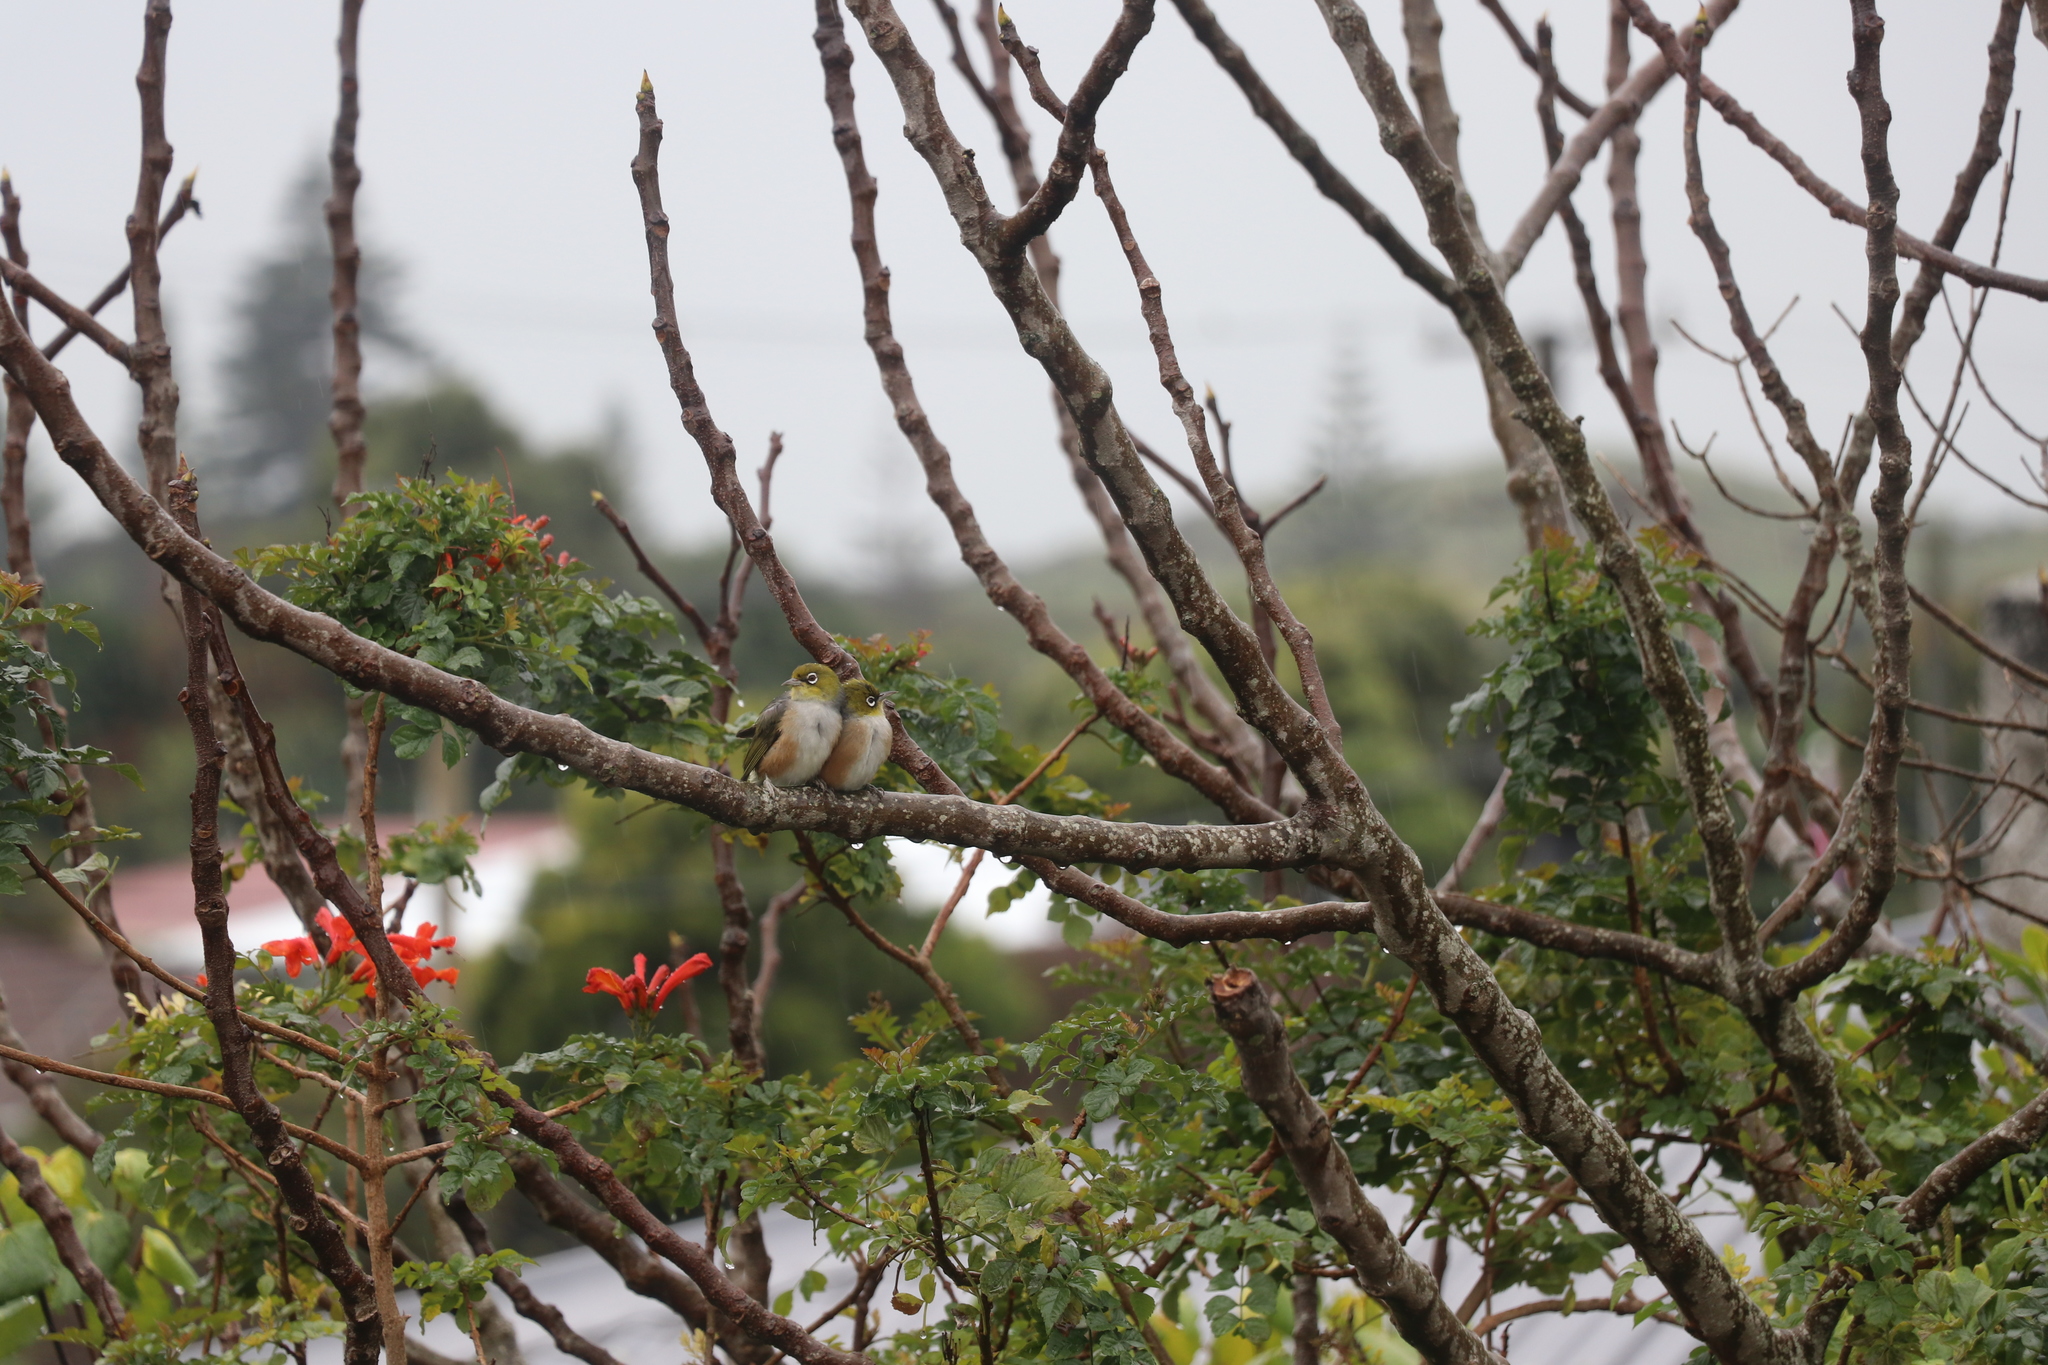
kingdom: Animalia
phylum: Chordata
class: Aves
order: Passeriformes
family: Zosteropidae
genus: Zosterops
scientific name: Zosterops lateralis
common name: Silvereye
